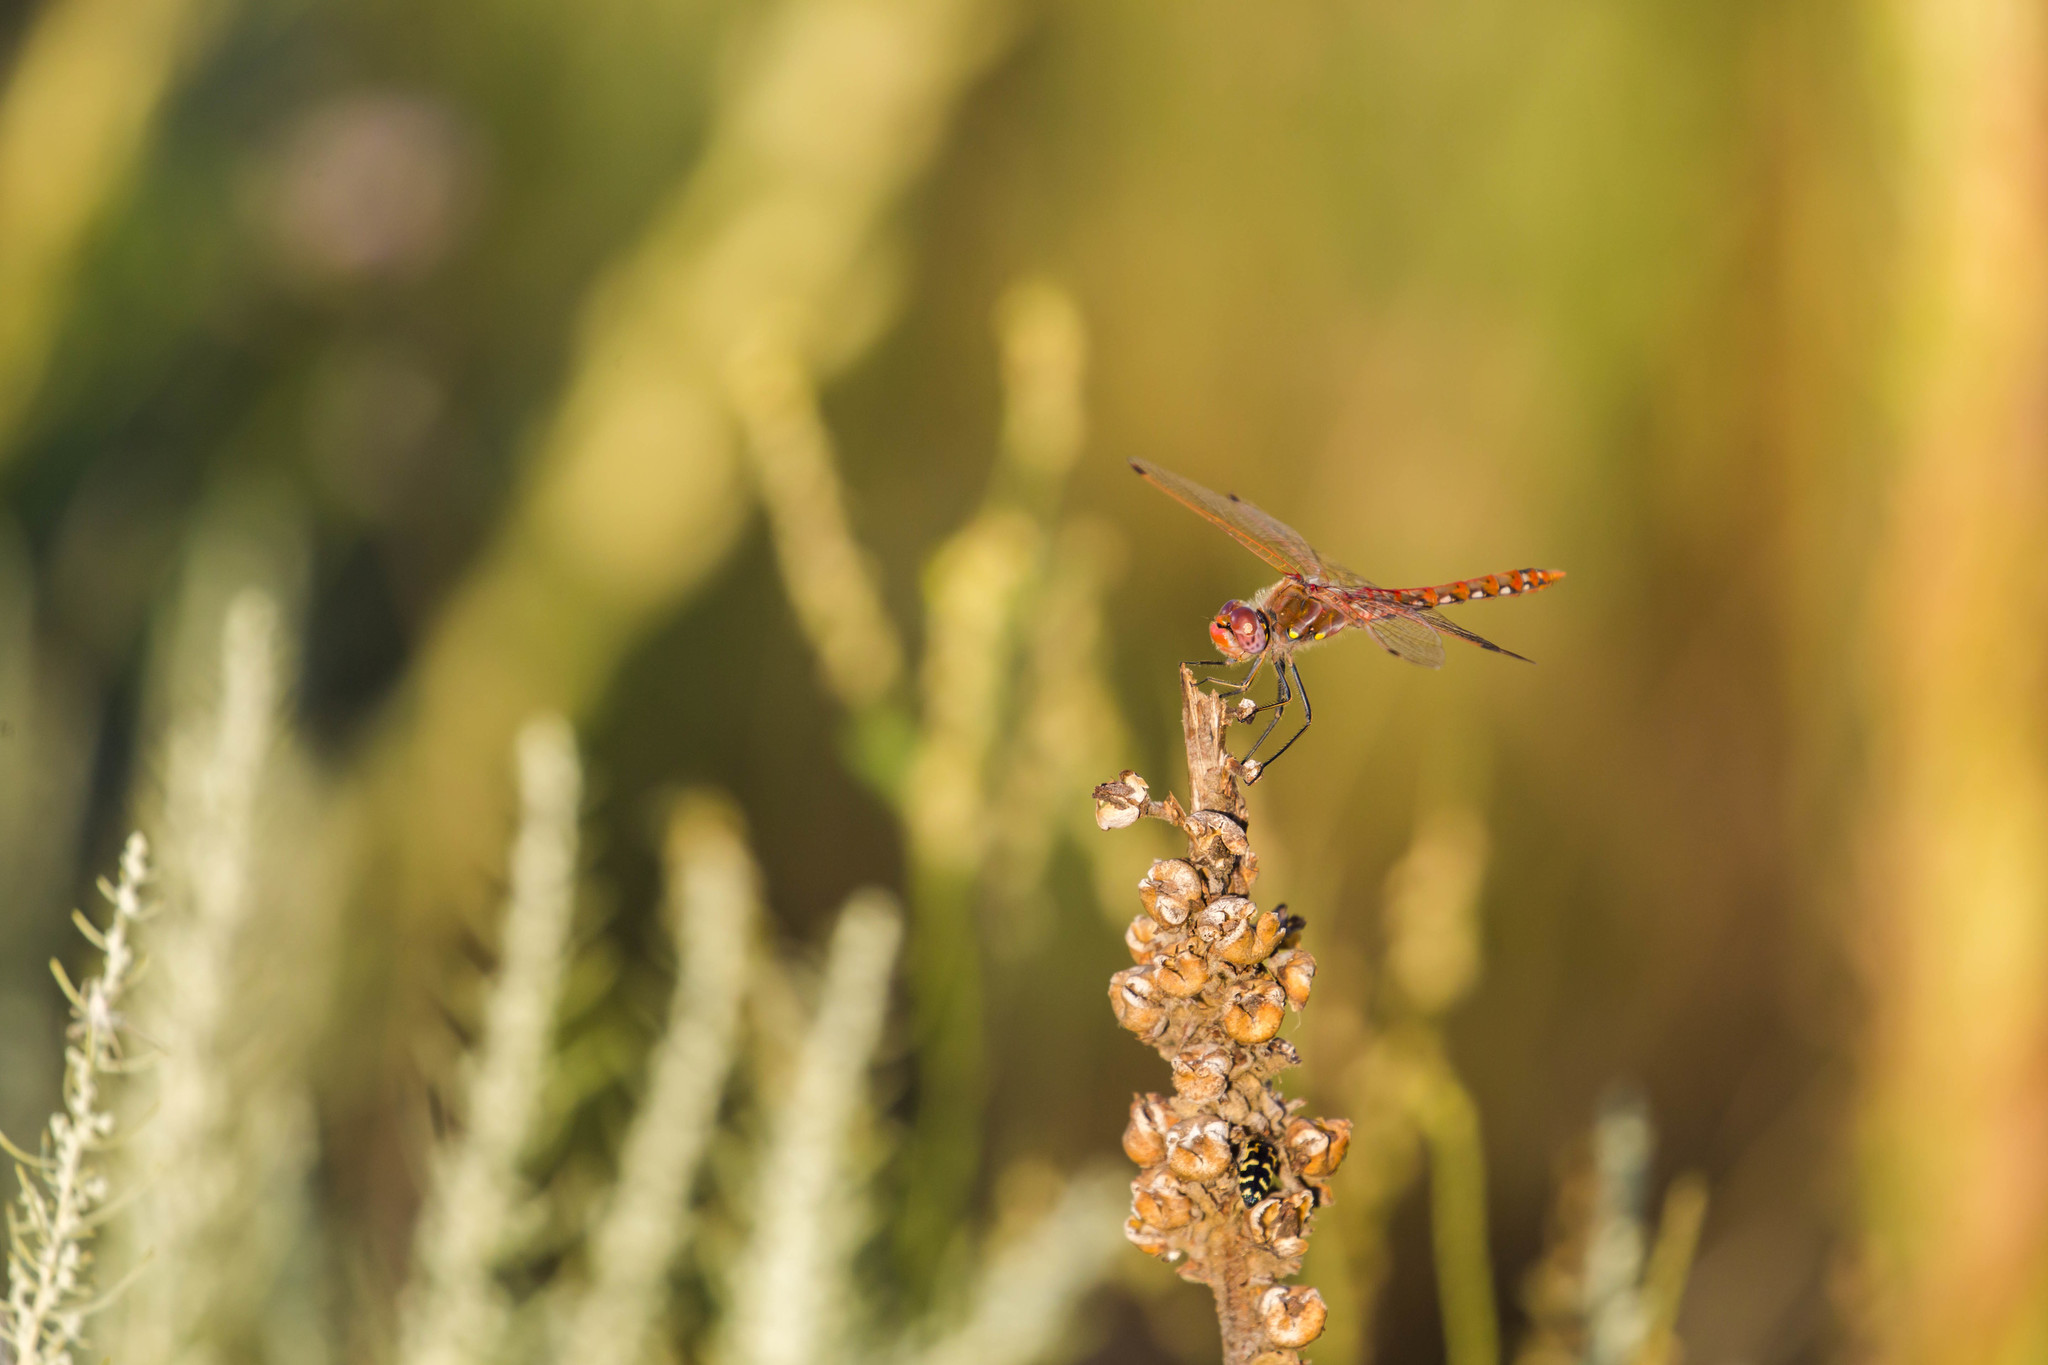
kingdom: Animalia
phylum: Arthropoda
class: Insecta
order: Odonata
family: Libellulidae
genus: Sympetrum
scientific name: Sympetrum corruptum
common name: Variegated meadowhawk
